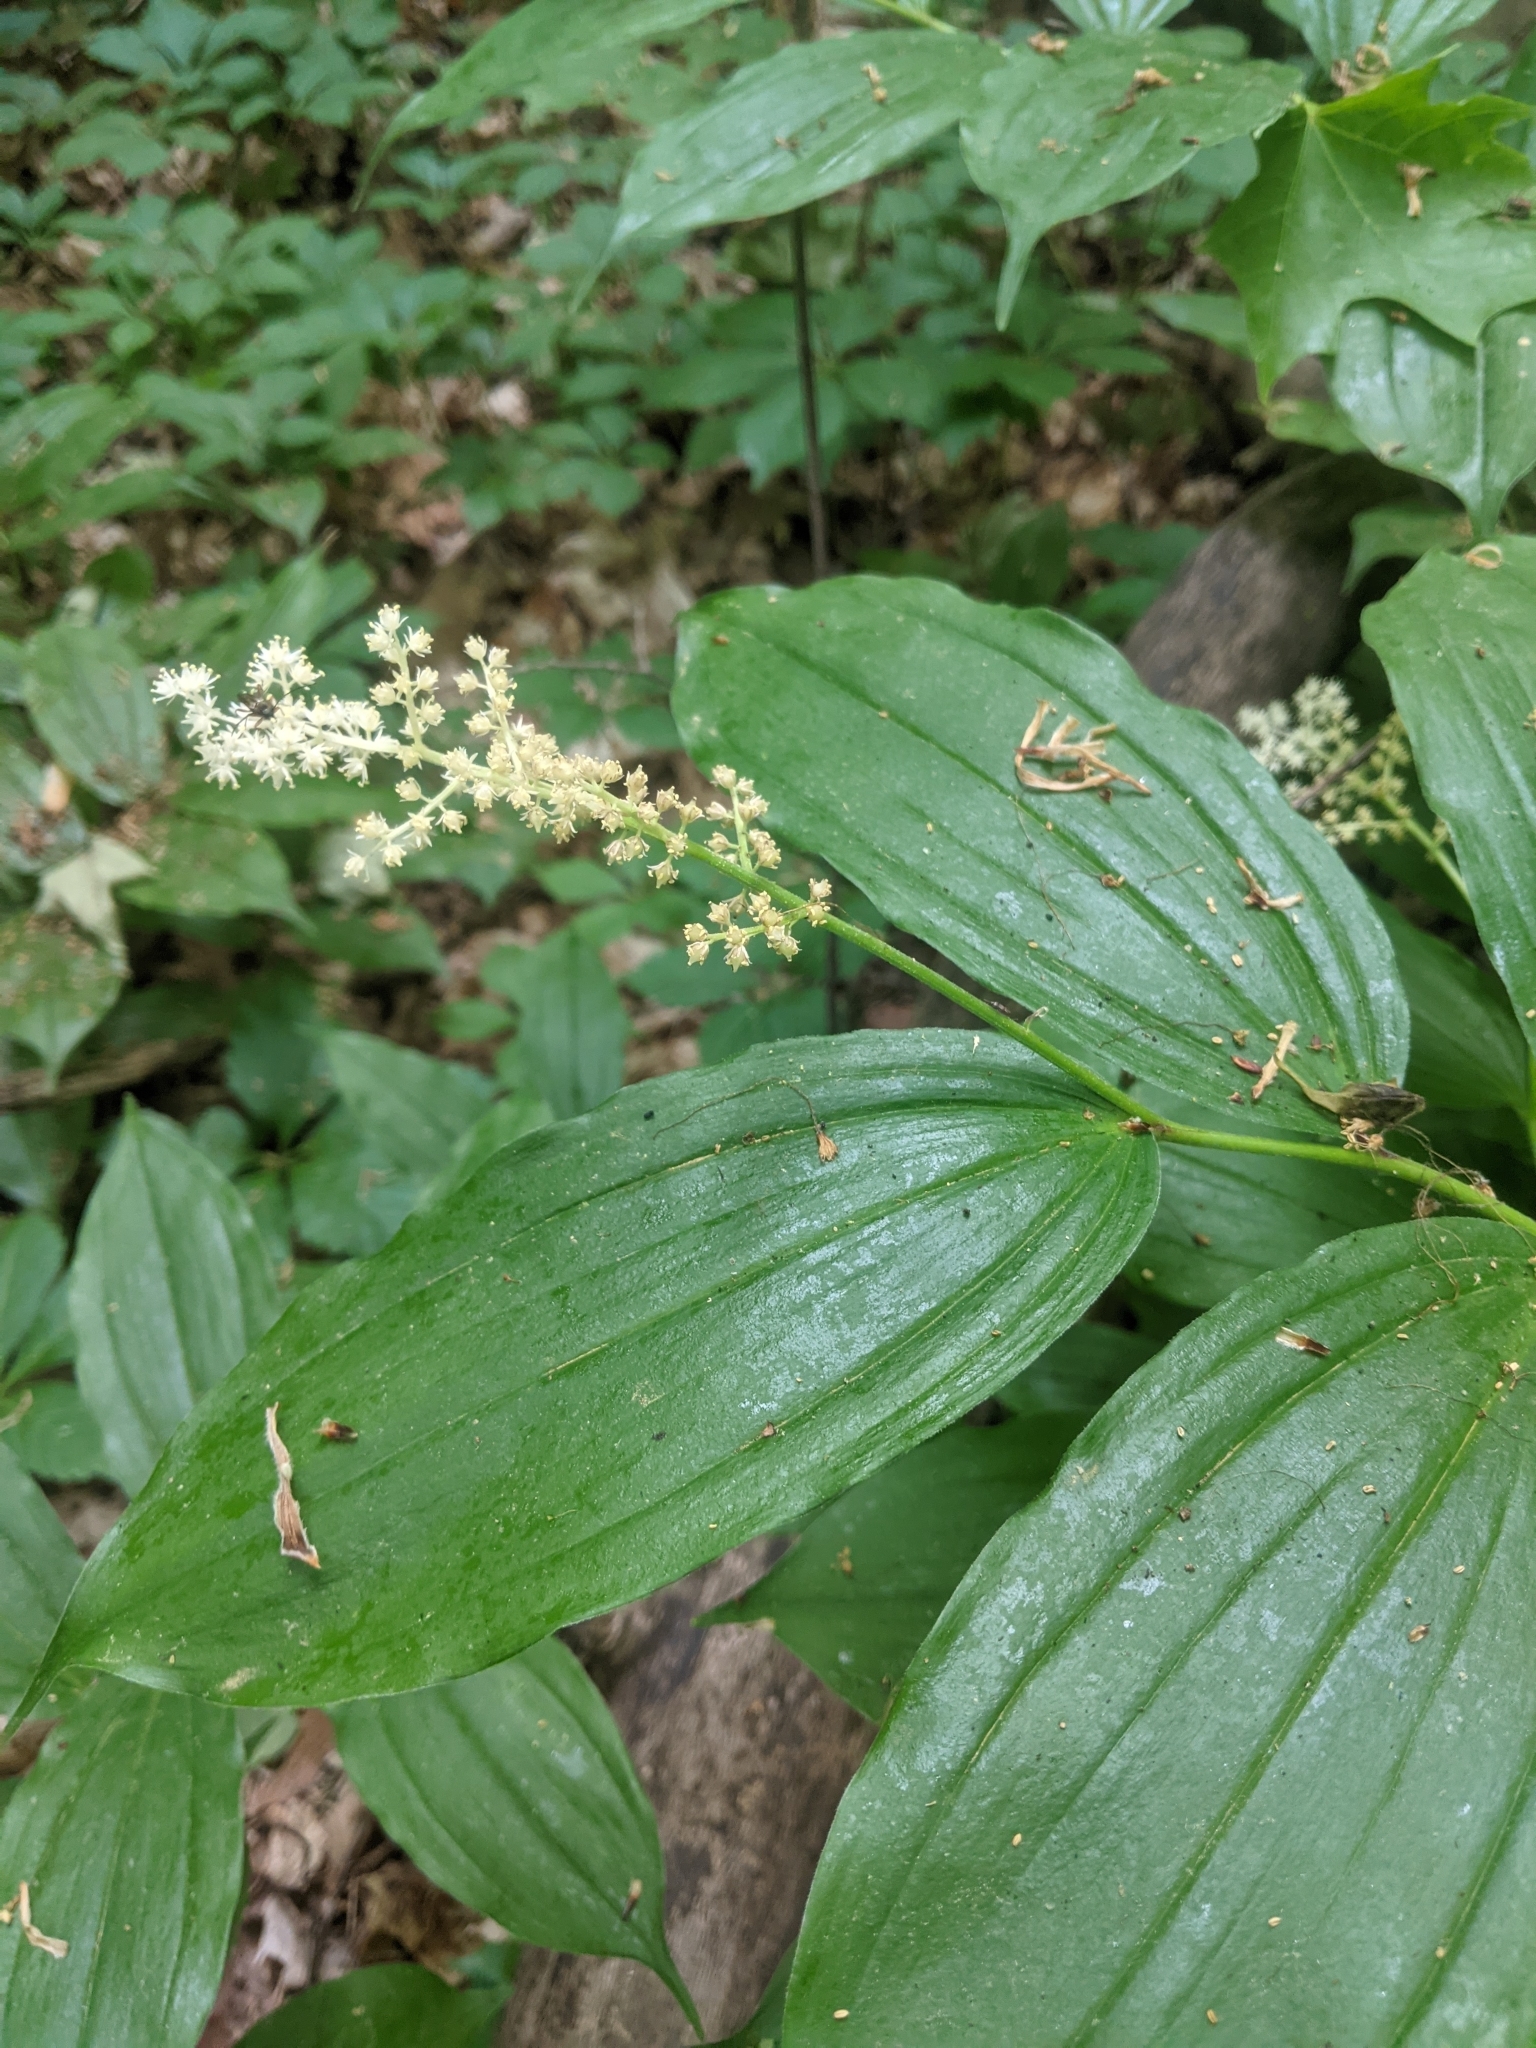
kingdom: Plantae
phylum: Tracheophyta
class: Liliopsida
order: Asparagales
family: Asparagaceae
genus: Maianthemum
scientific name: Maianthemum racemosum
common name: False spikenard
